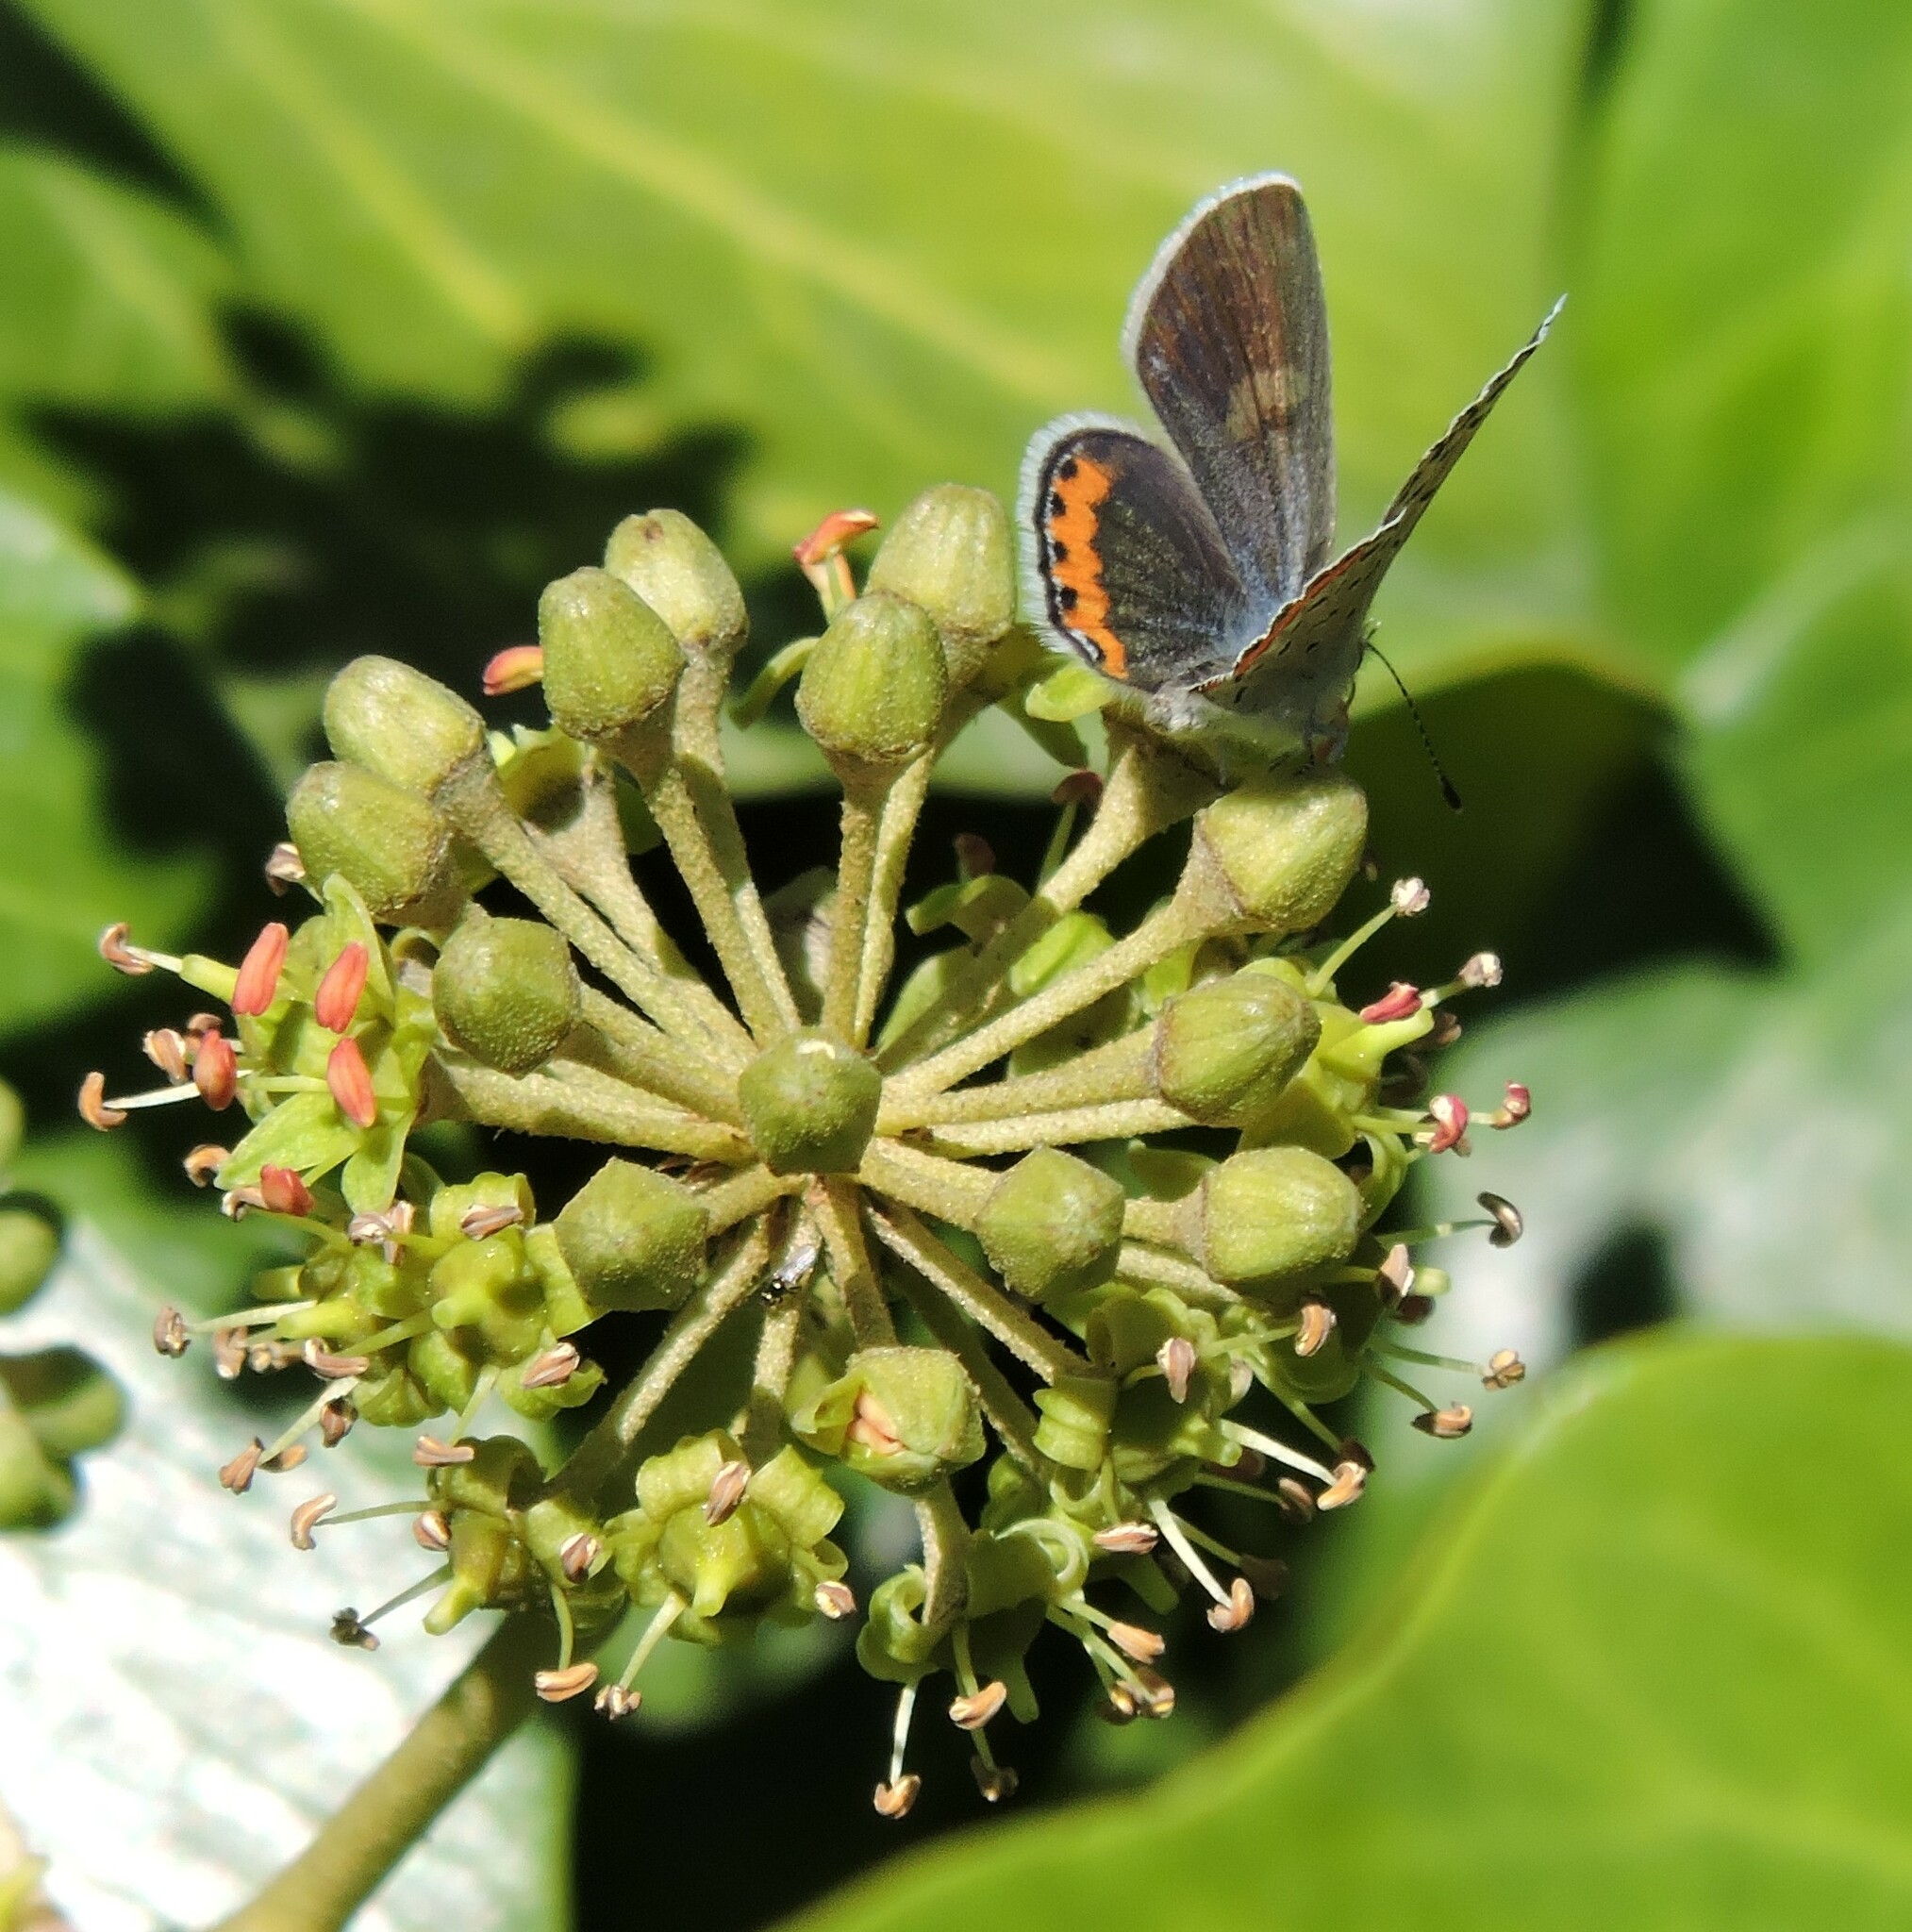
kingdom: Animalia
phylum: Arthropoda
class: Insecta
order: Lepidoptera
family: Lycaenidae
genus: Icaricia
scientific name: Icaricia acmon
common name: Acmon blue
